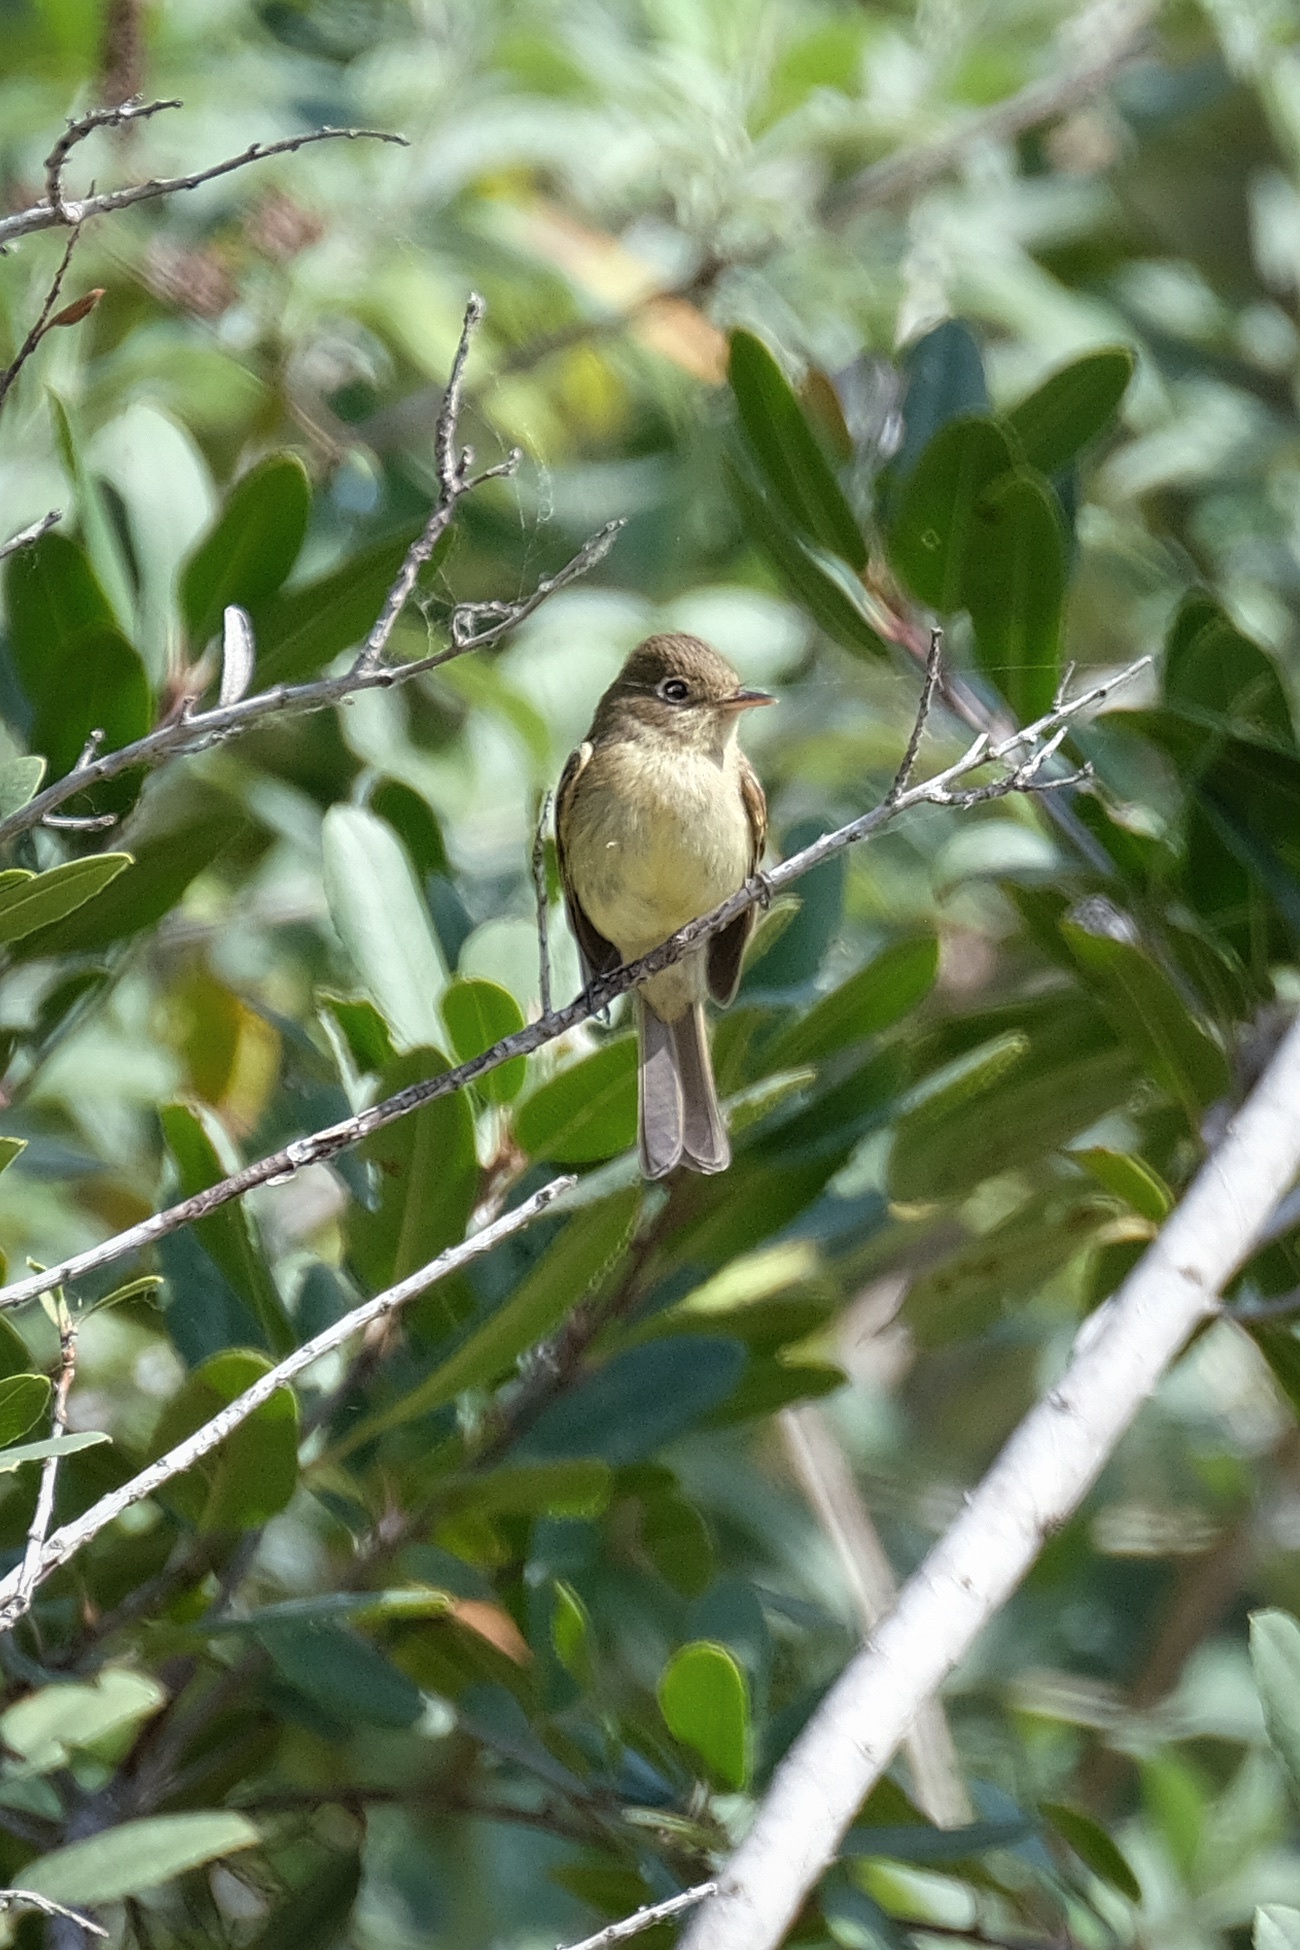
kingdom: Animalia
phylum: Chordata
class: Aves
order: Passeriformes
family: Tyrannidae
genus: Empidonax
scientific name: Empidonax difficilis
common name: Pacific-slope flycatcher
